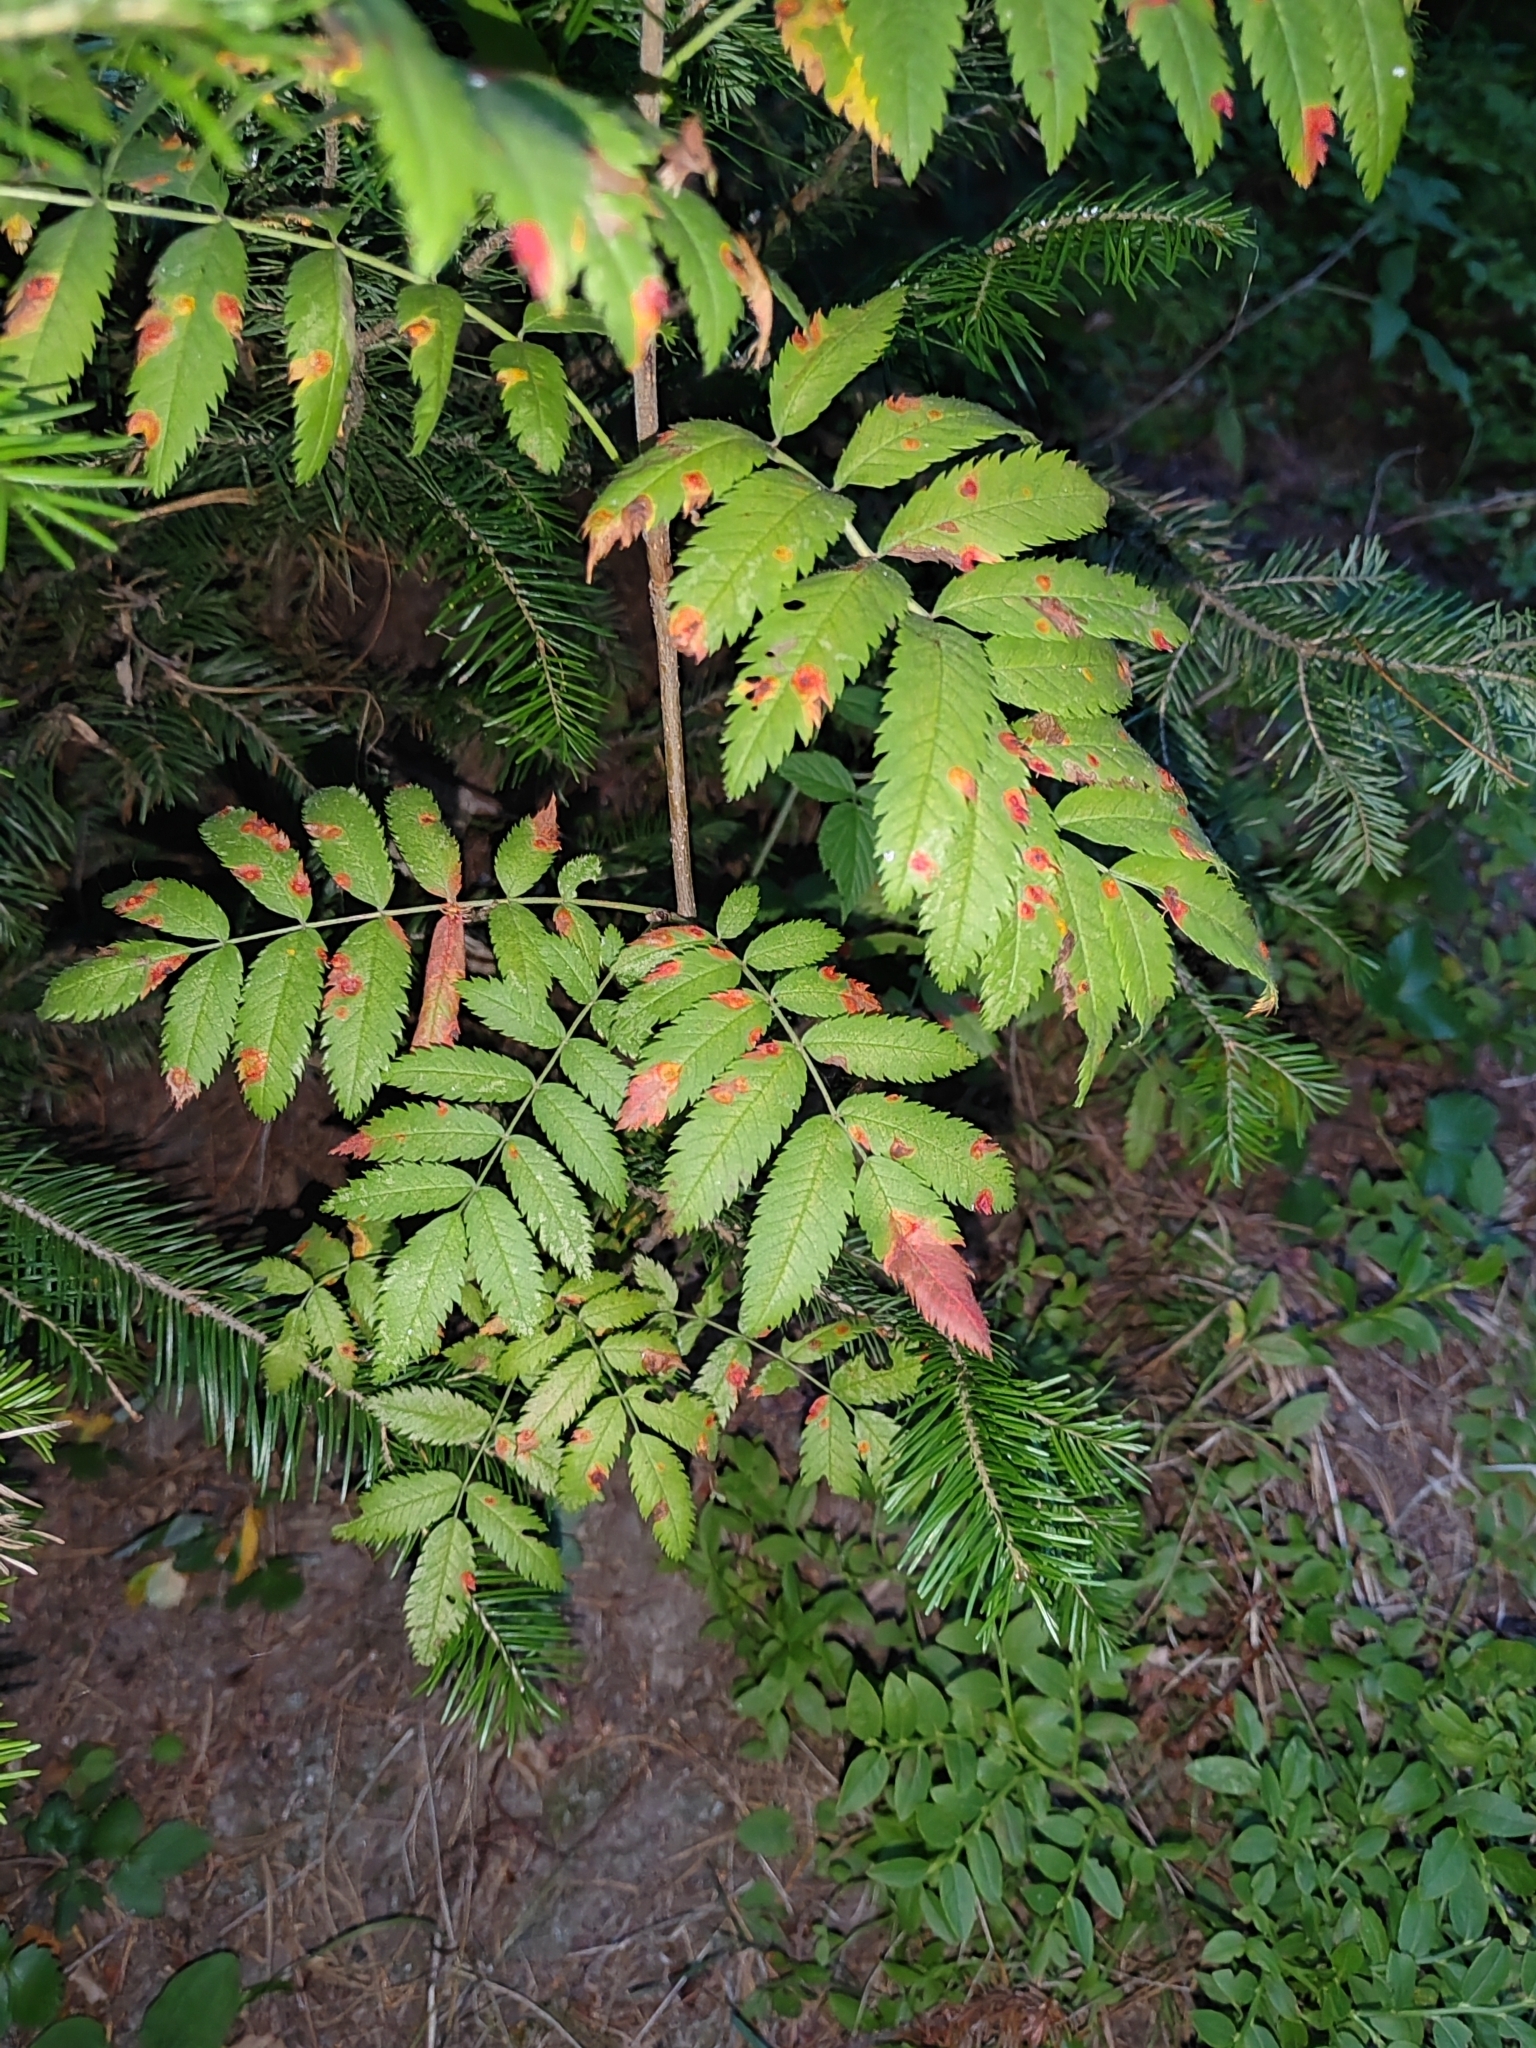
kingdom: Plantae
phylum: Tracheophyta
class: Magnoliopsida
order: Rosales
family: Rosaceae
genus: Sorbus
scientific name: Sorbus aucuparia
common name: Rowan
